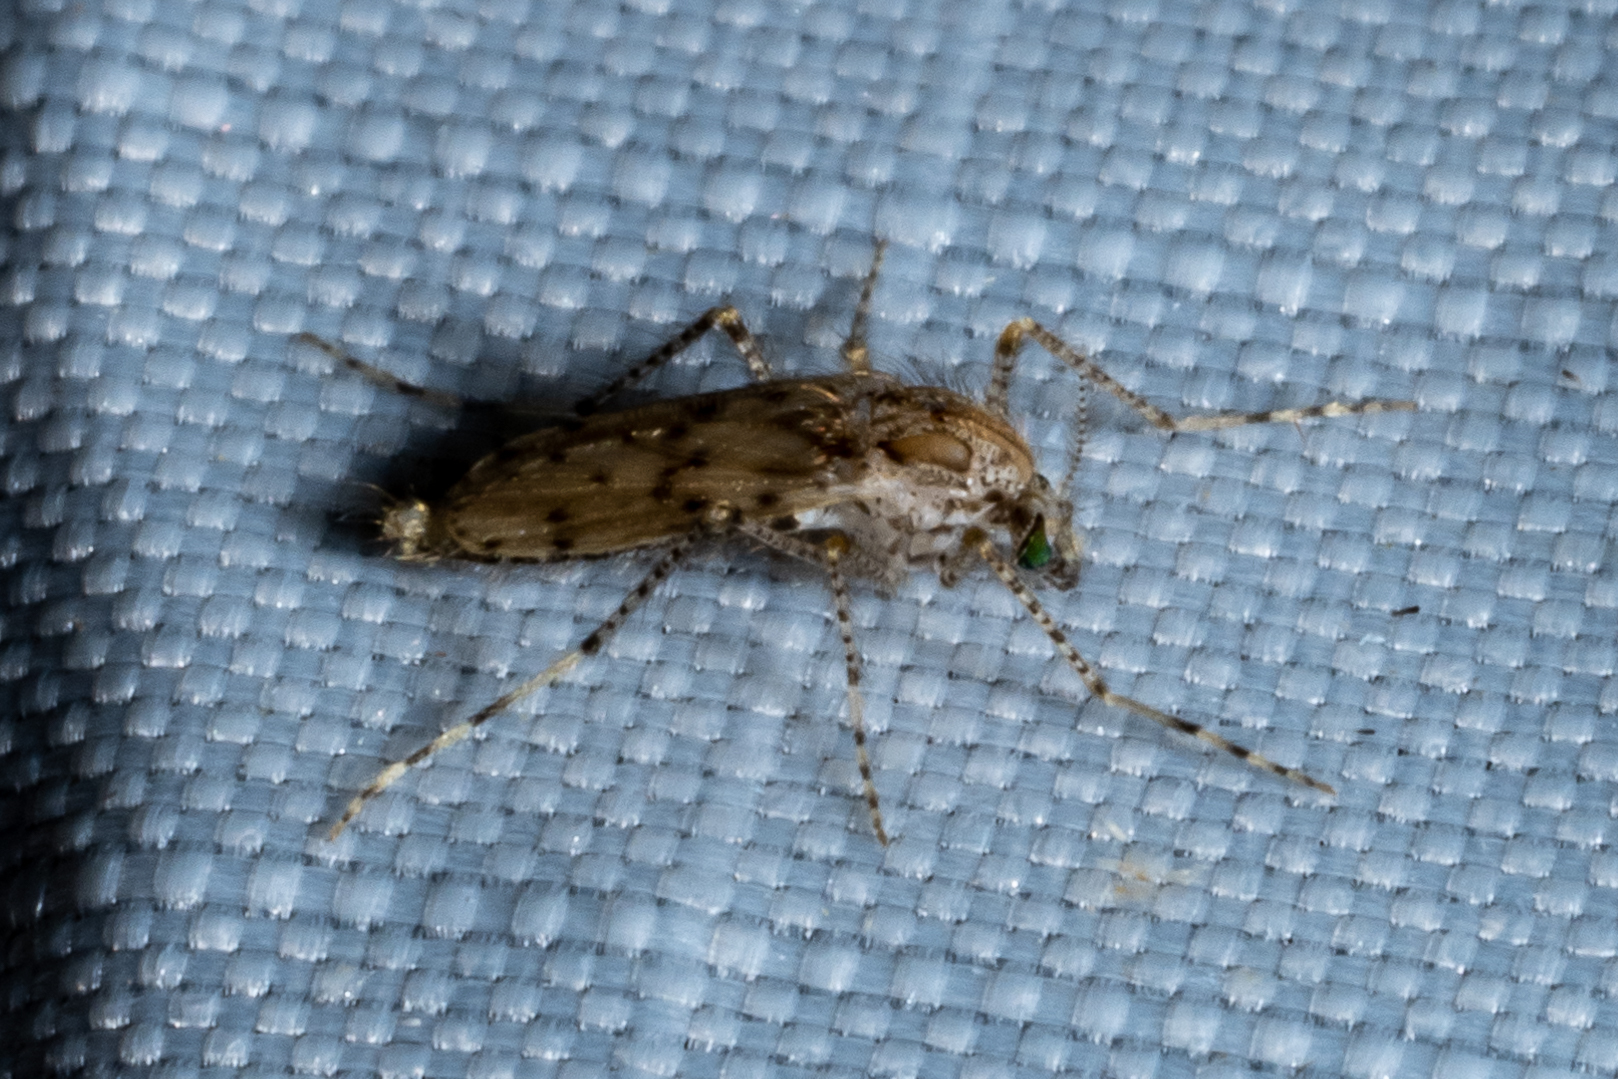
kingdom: Animalia
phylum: Arthropoda
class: Insecta
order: Diptera
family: Chaoboridae
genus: Chaoborus
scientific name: Chaoborus punctipennis
